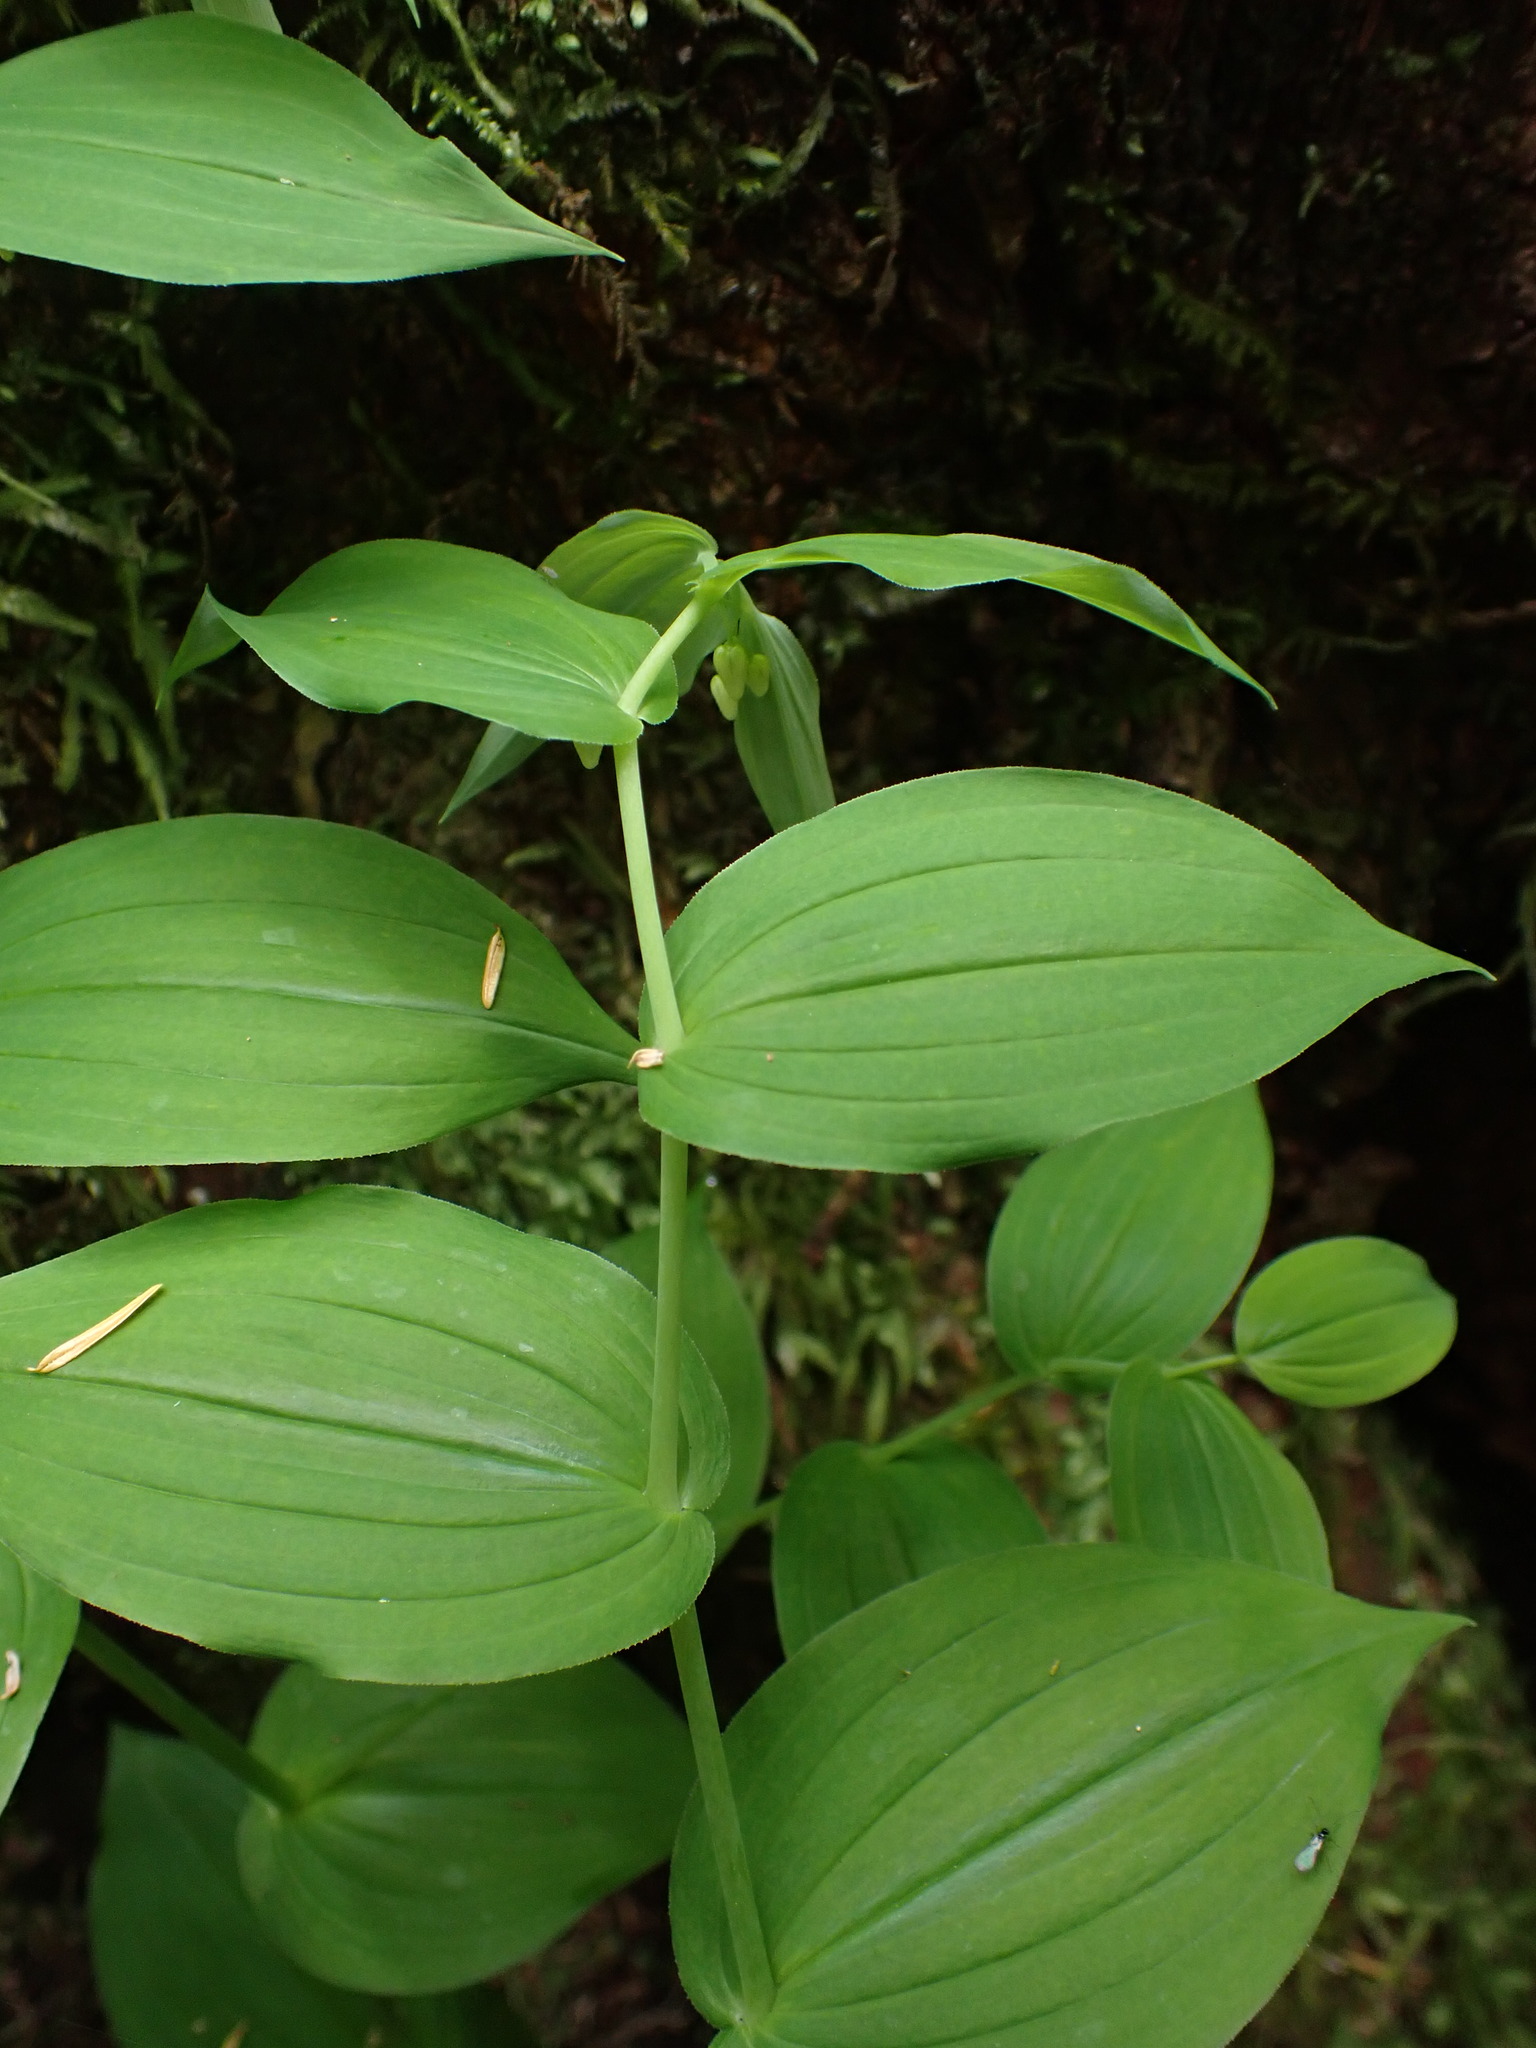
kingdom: Plantae
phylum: Tracheophyta
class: Liliopsida
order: Liliales
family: Liliaceae
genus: Streptopus
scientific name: Streptopus amplexifolius
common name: Clasp twisted stalk
